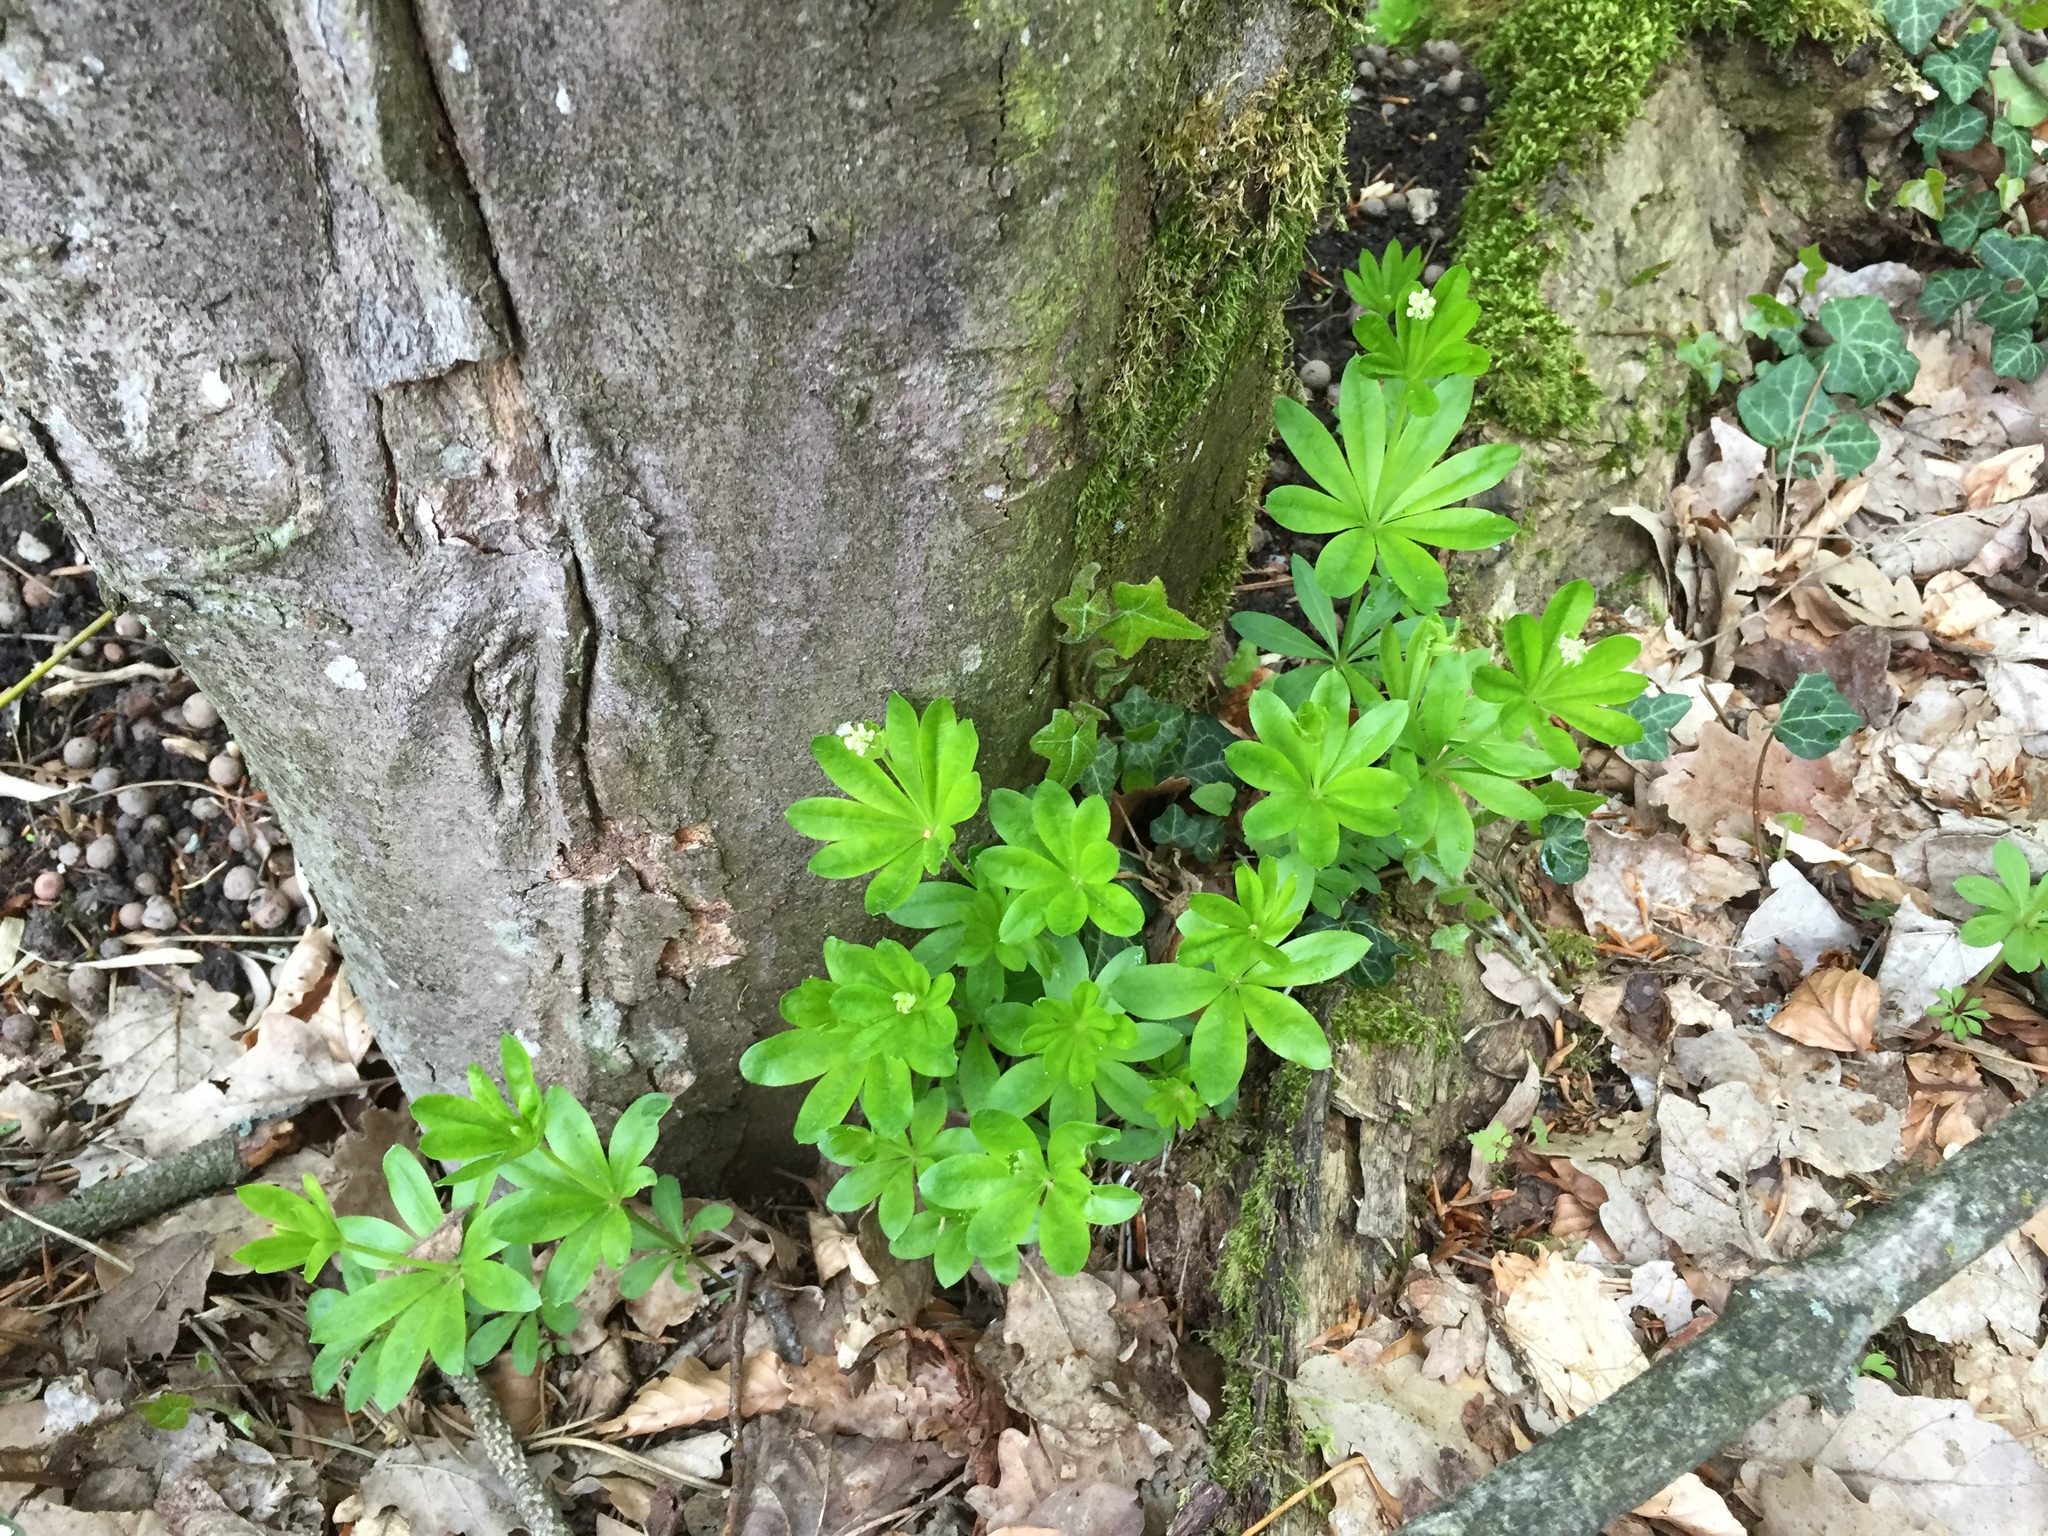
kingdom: Plantae
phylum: Tracheophyta
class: Magnoliopsida
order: Gentianales
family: Rubiaceae
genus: Galium
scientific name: Galium odoratum
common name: Sweet woodruff
